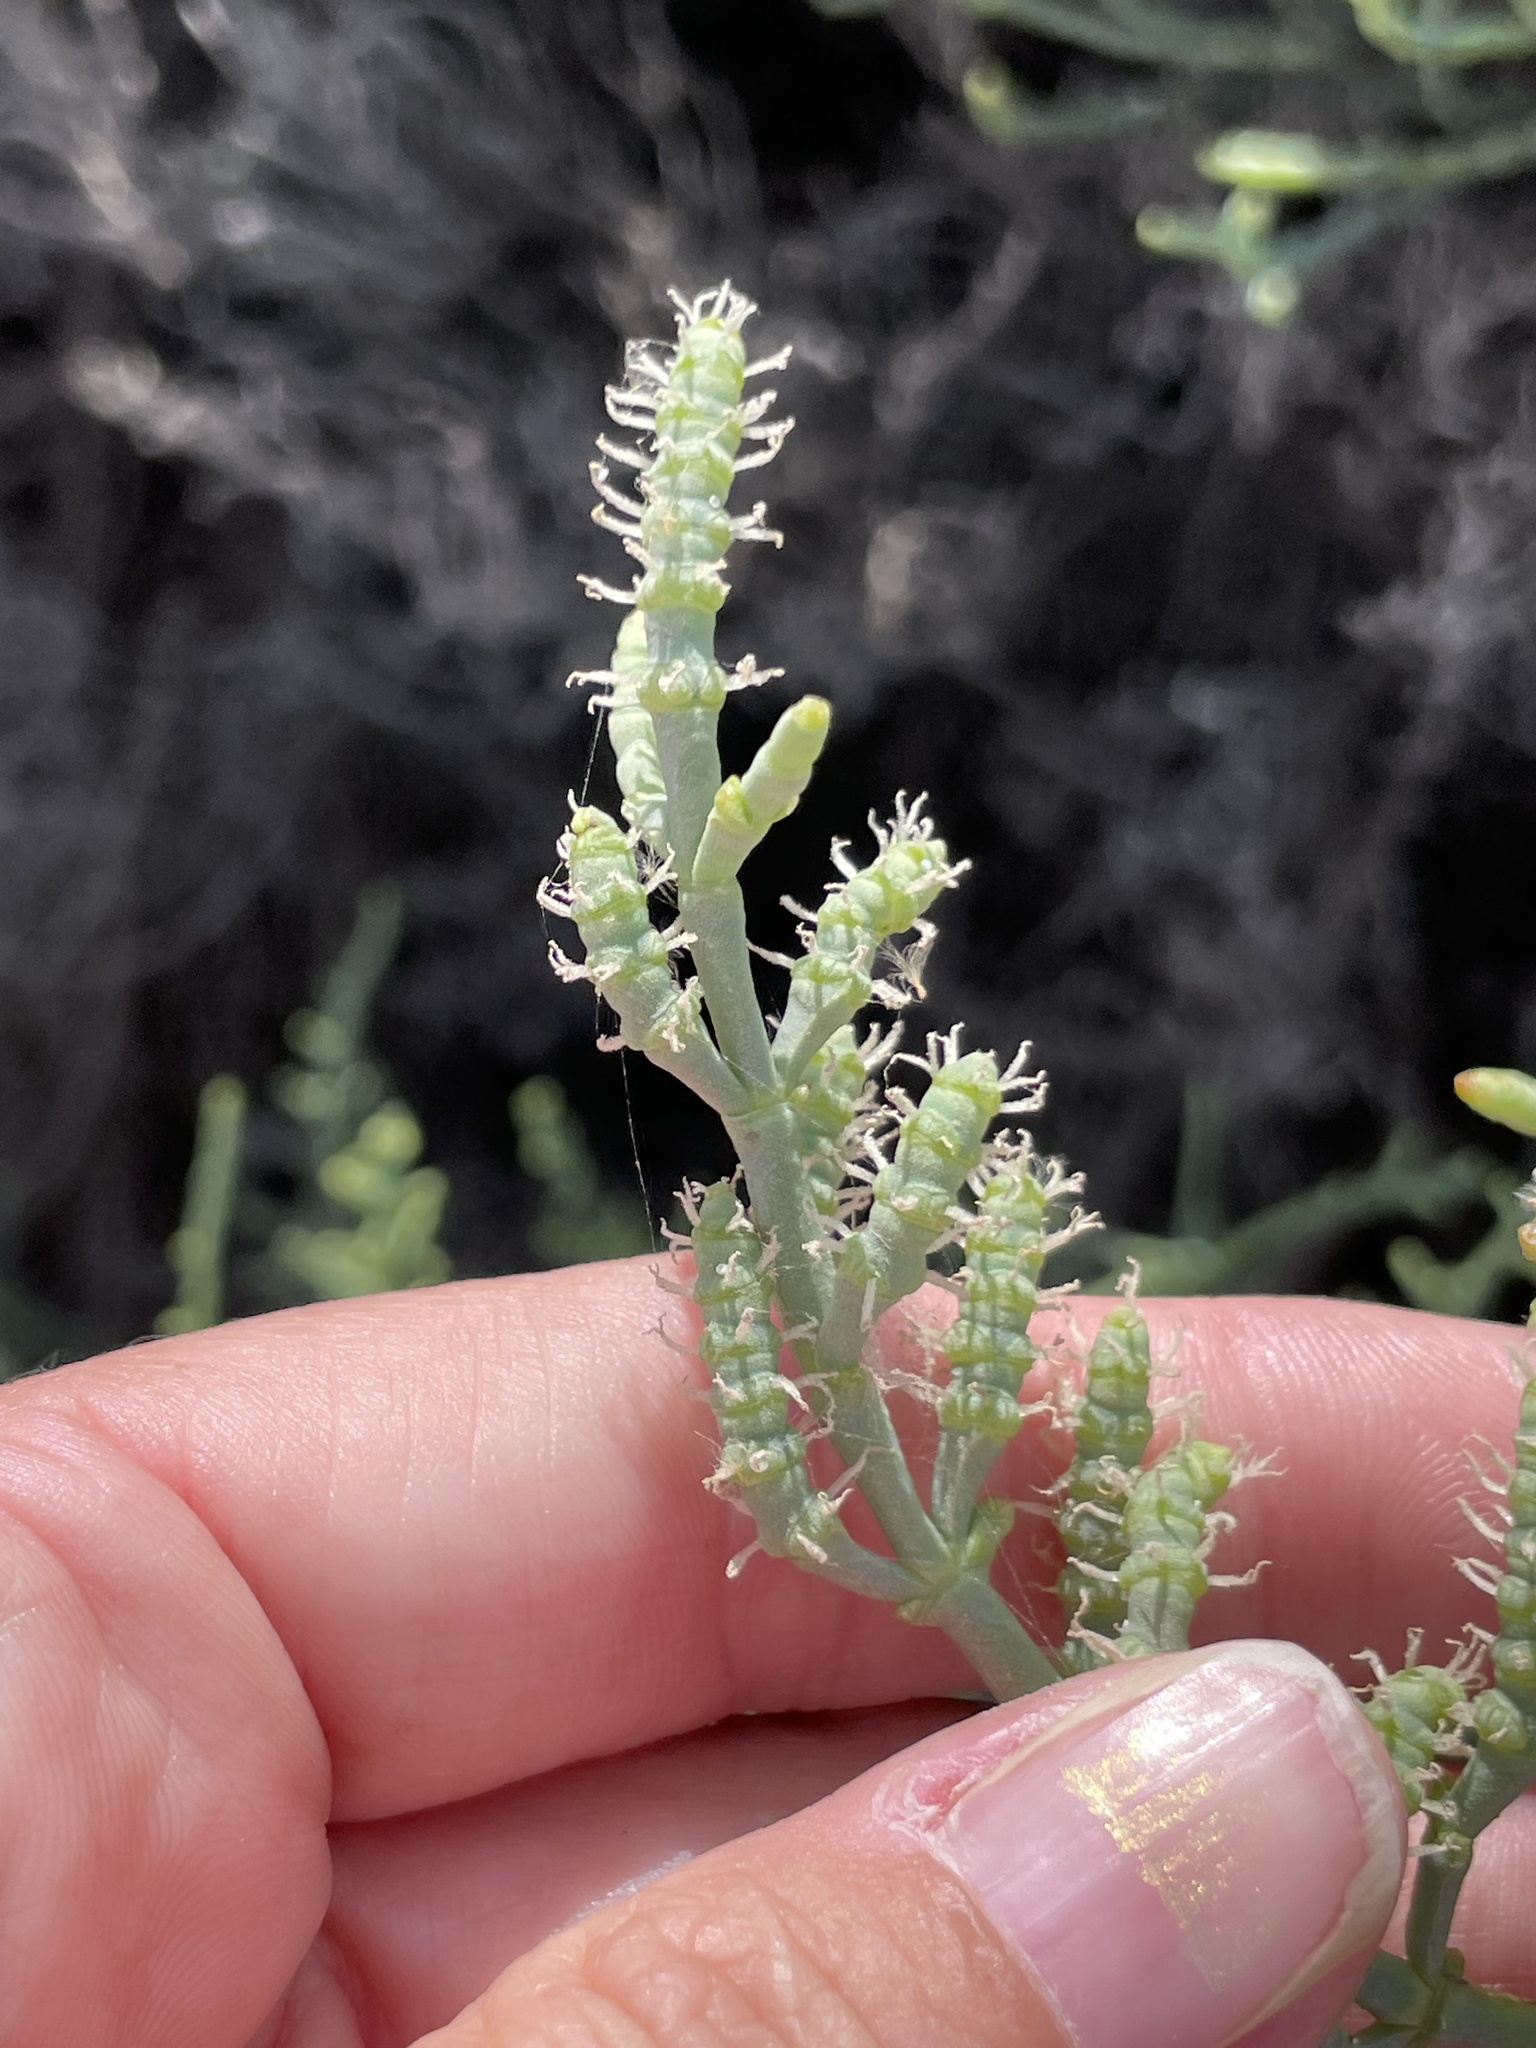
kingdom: Plantae
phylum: Tracheophyta
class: Magnoliopsida
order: Caryophyllales
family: Amaranthaceae
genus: Salicornia
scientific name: Salicornia pacifica
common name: Pacific glasswort
